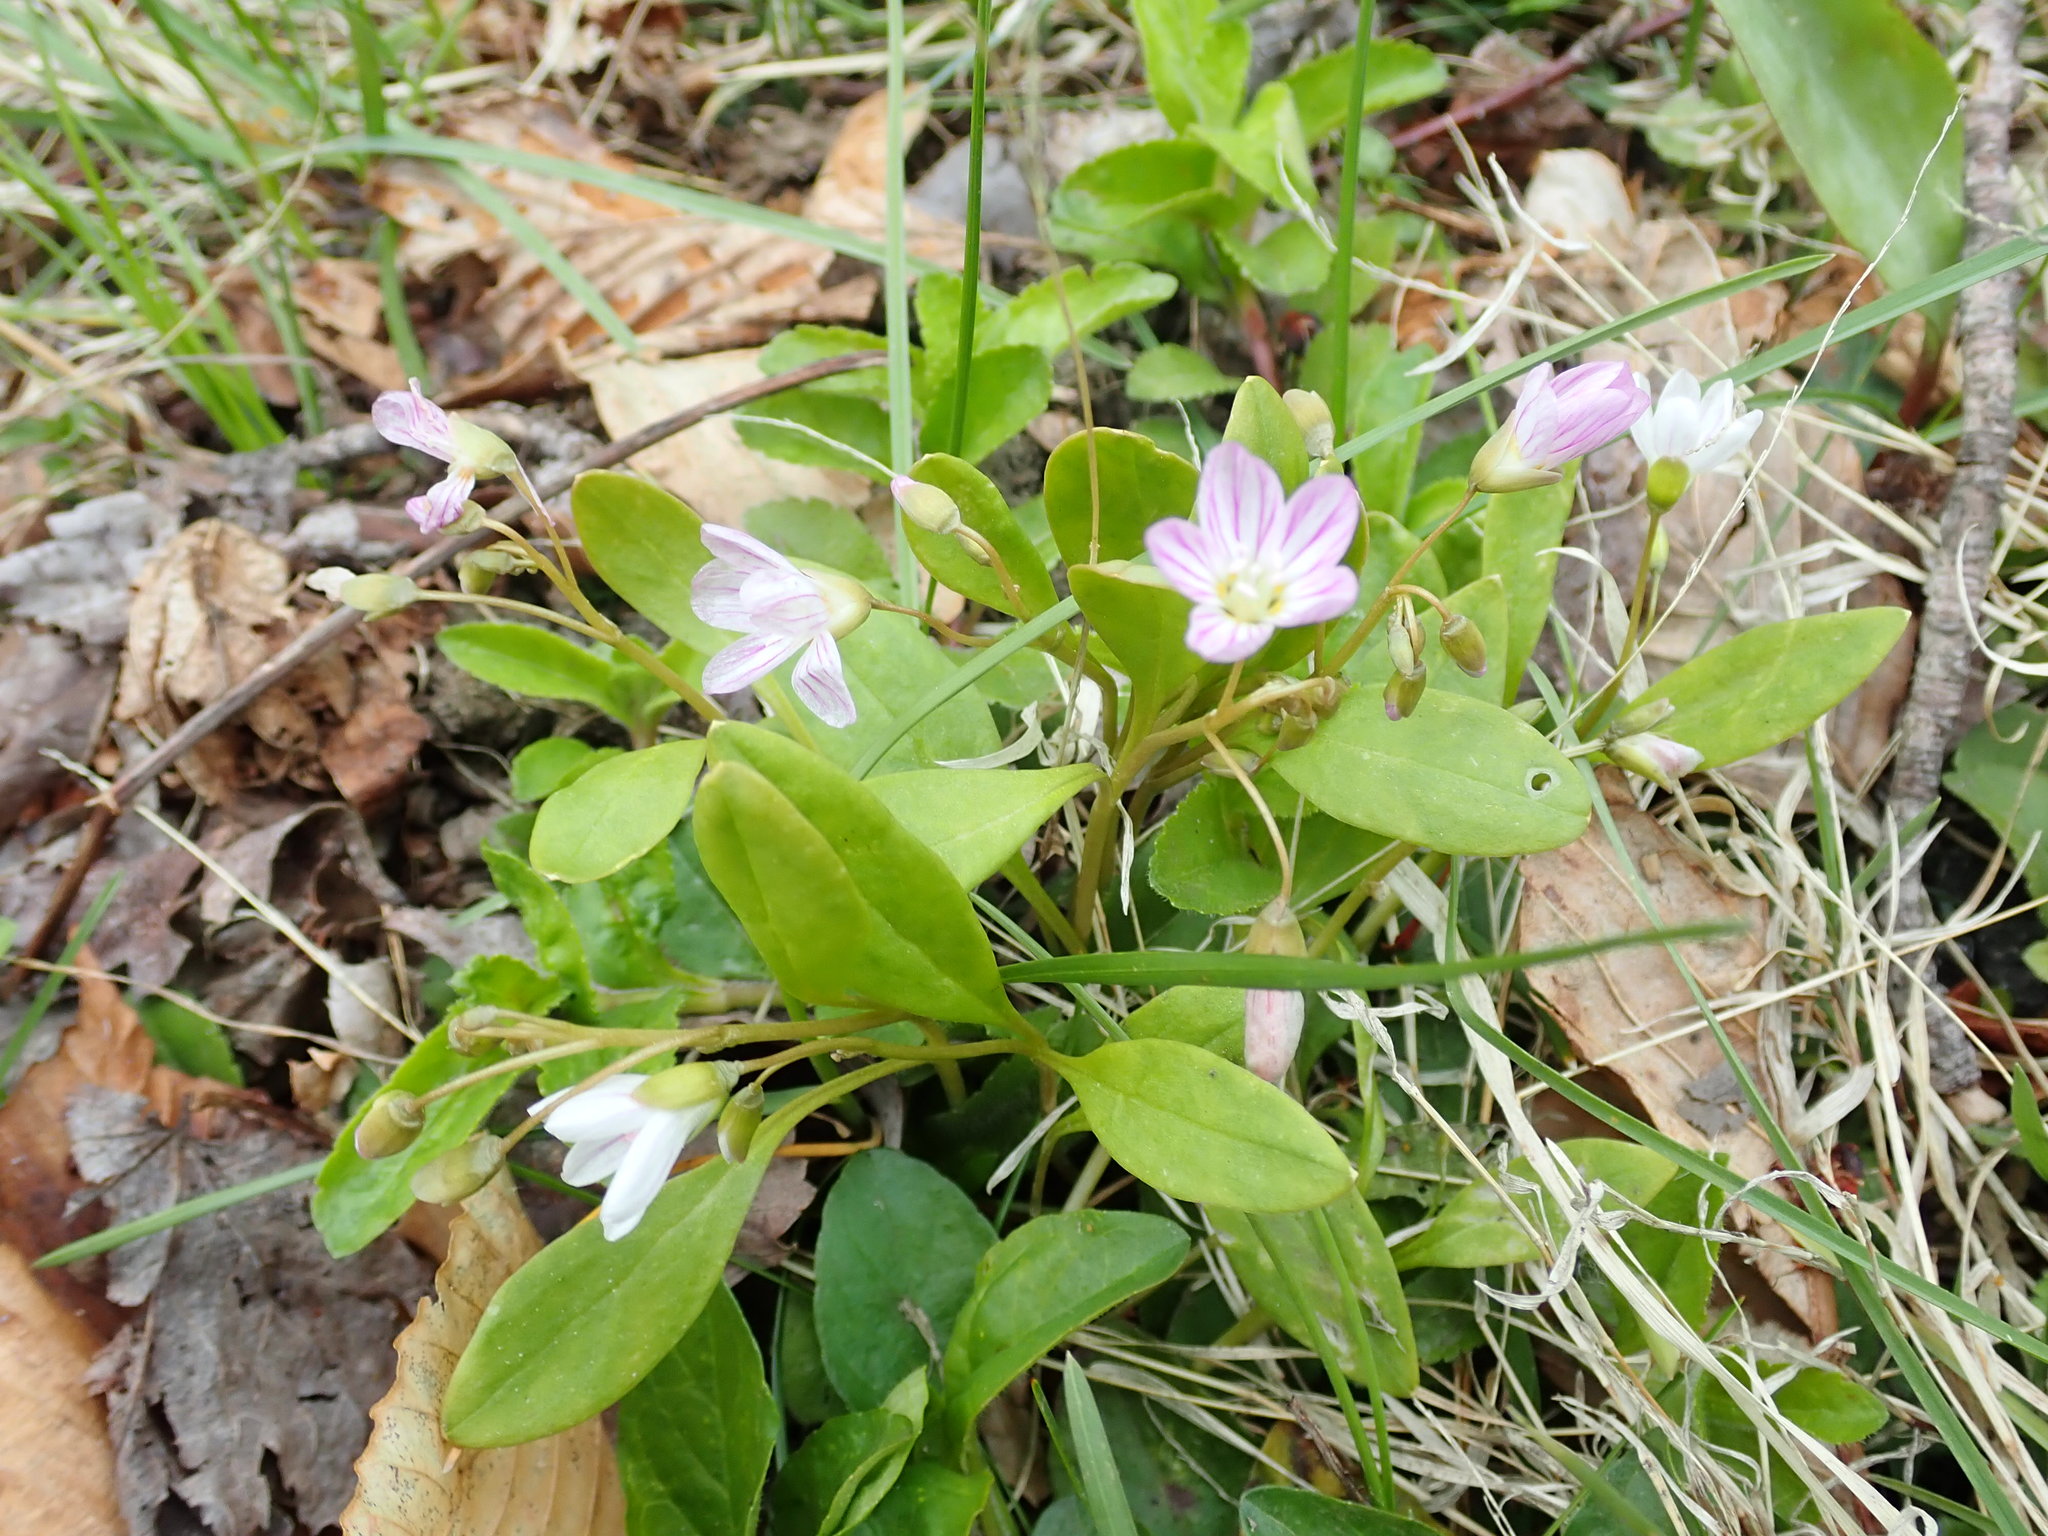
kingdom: Plantae
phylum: Tracheophyta
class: Magnoliopsida
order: Caryophyllales
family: Montiaceae
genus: Claytonia
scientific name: Claytonia caroliniana
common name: Carolina spring beauty
